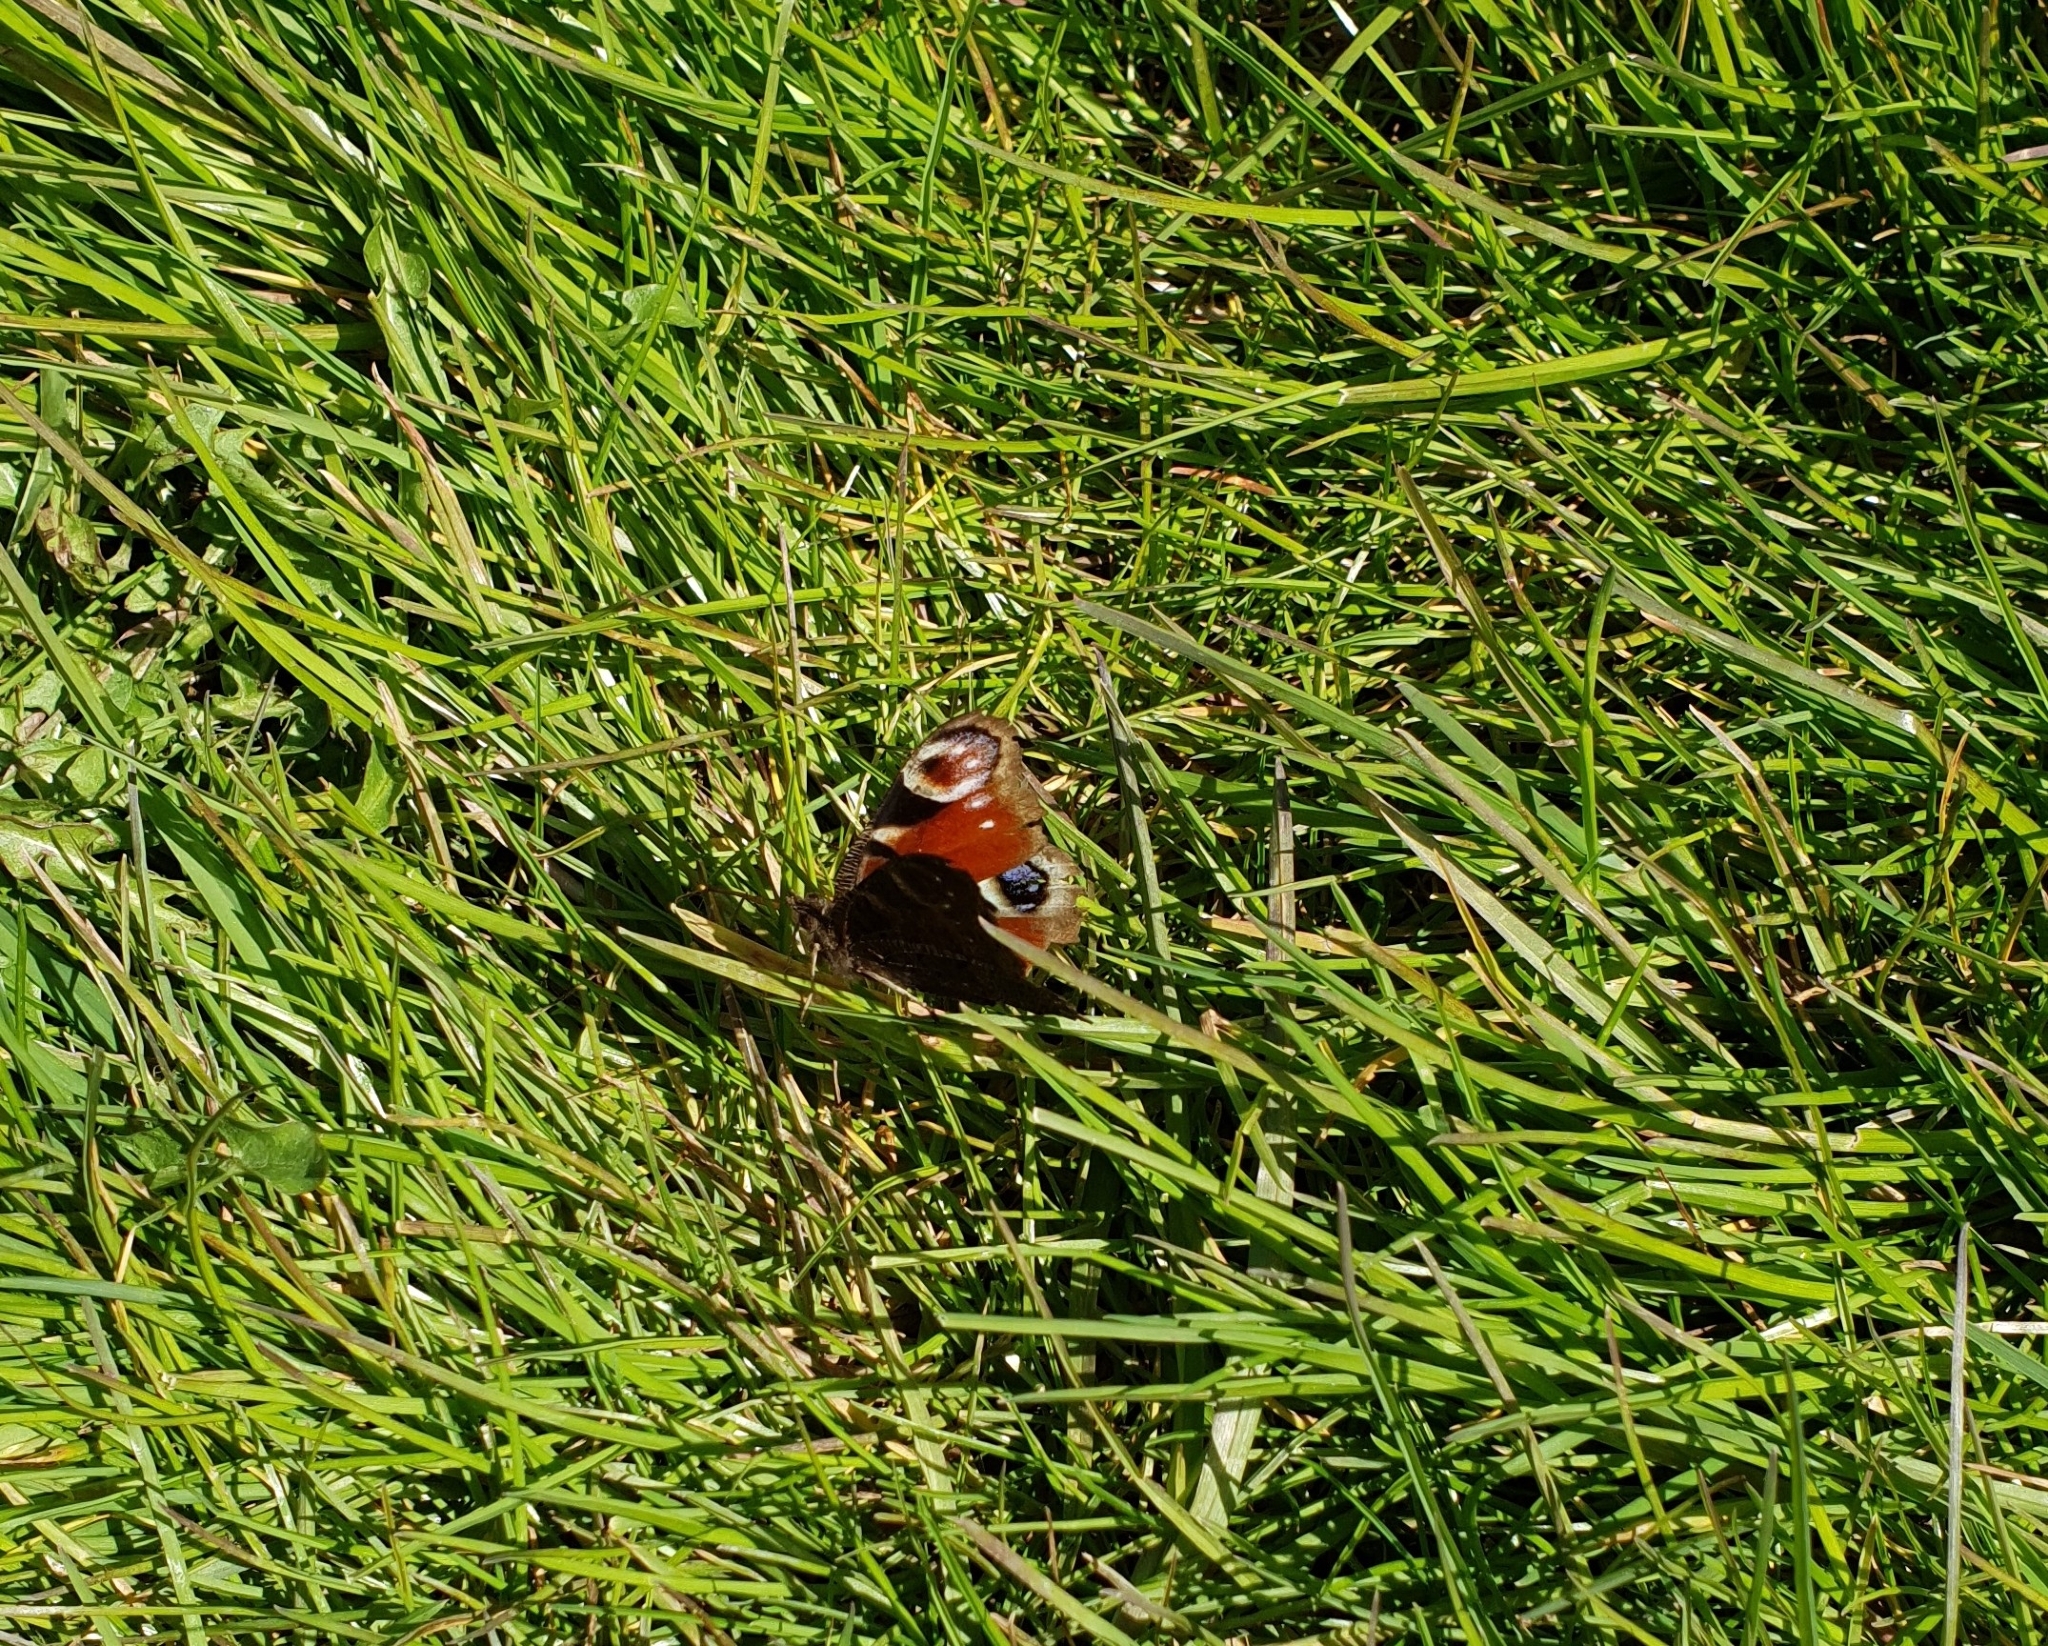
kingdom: Animalia
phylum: Arthropoda
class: Insecta
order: Lepidoptera
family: Nymphalidae
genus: Aglais
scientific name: Aglais io
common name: Peacock
